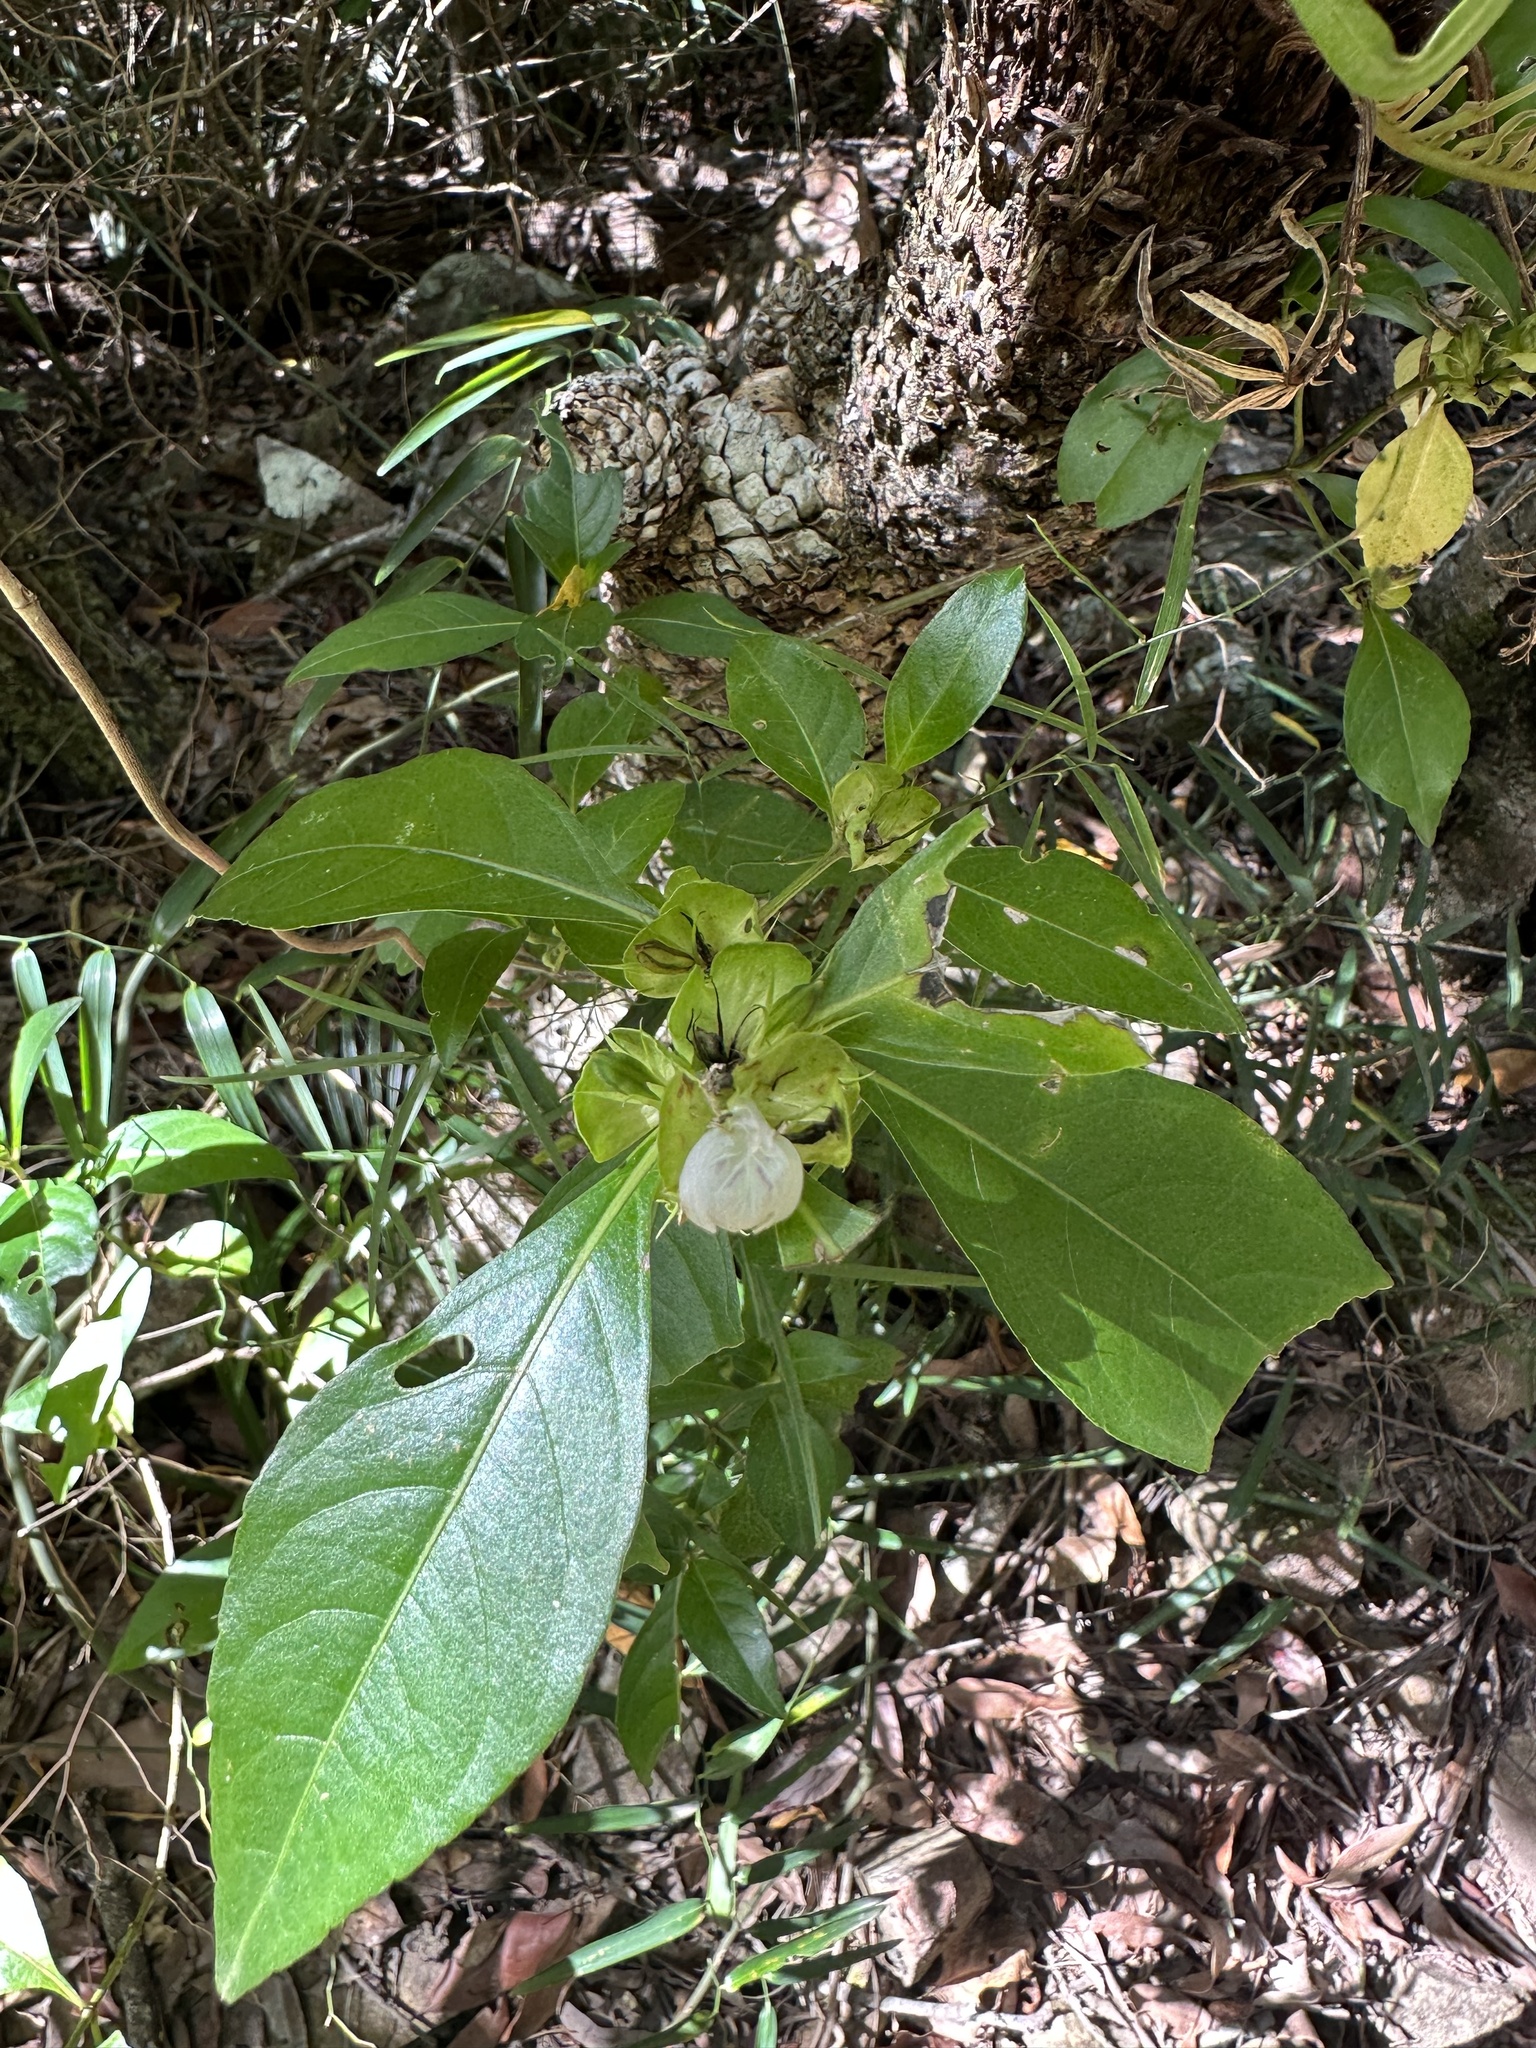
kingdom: Plantae
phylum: Tracheophyta
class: Magnoliopsida
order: Lamiales
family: Acanthaceae
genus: Justicia
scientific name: Justicia hygrophiloides
